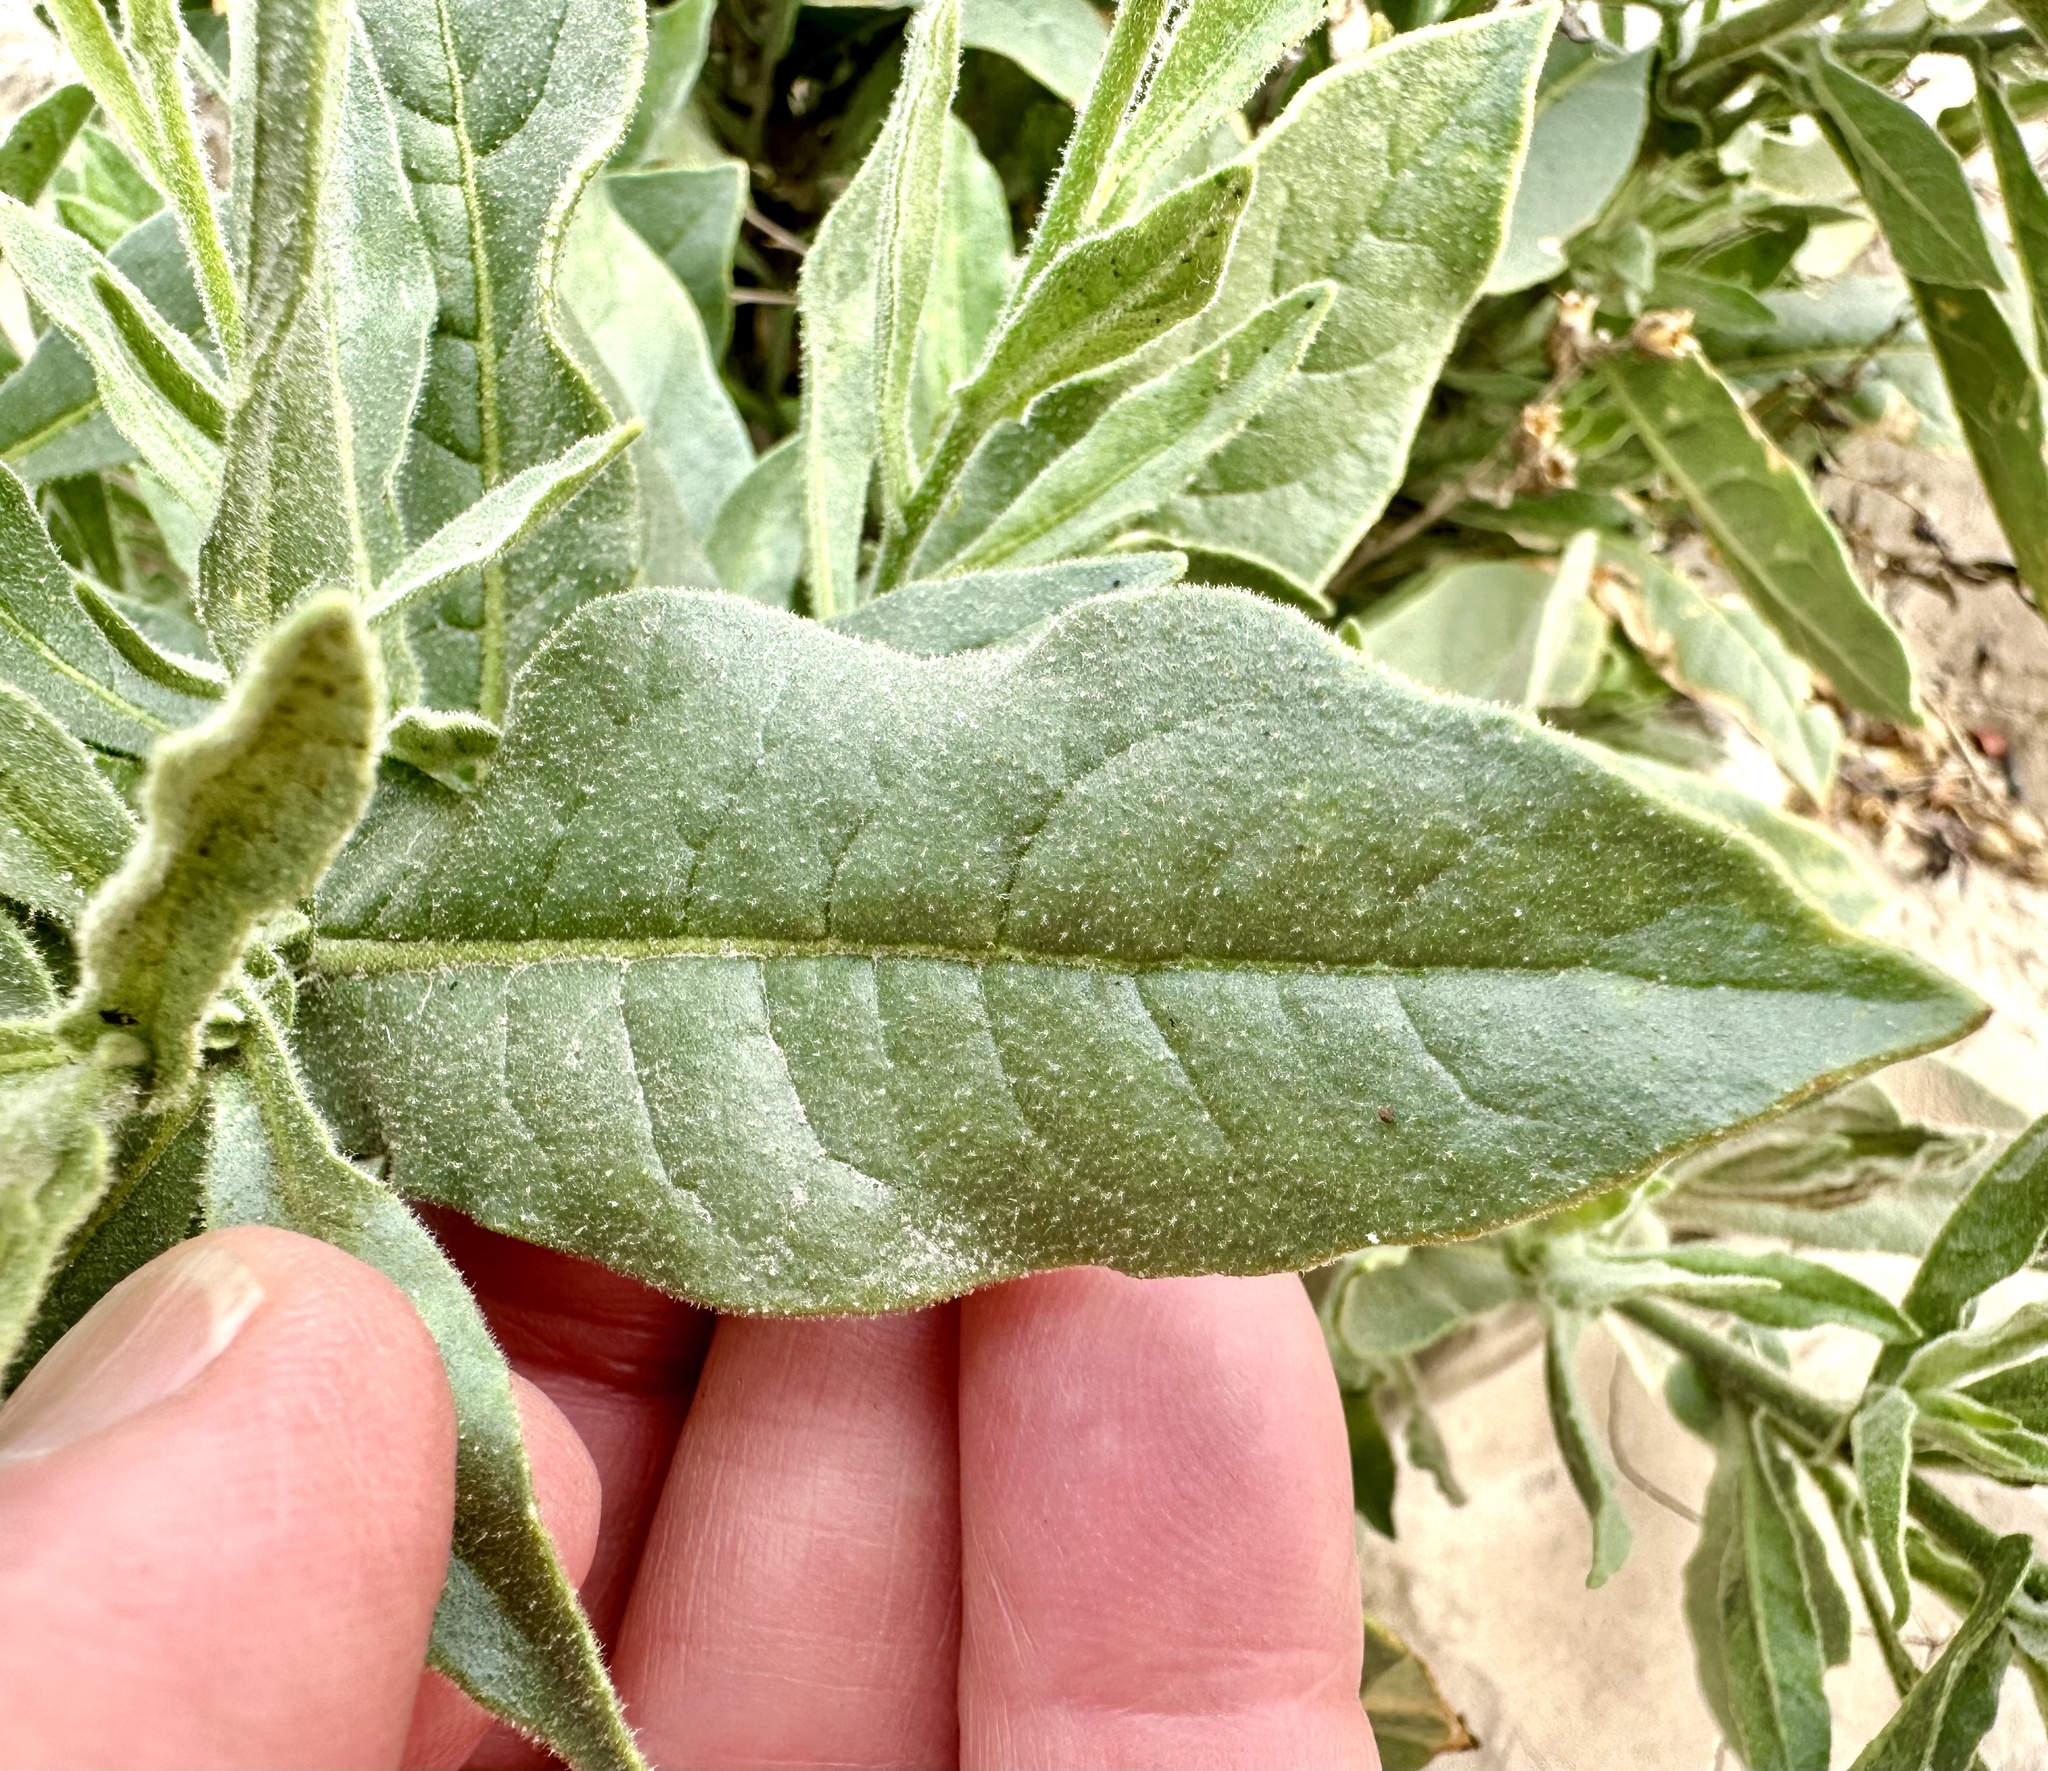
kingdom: Plantae
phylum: Tracheophyta
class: Magnoliopsida
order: Solanales
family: Solanaceae
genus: Nicotiana
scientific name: Nicotiana obtusifolia
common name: Desert tobacco
